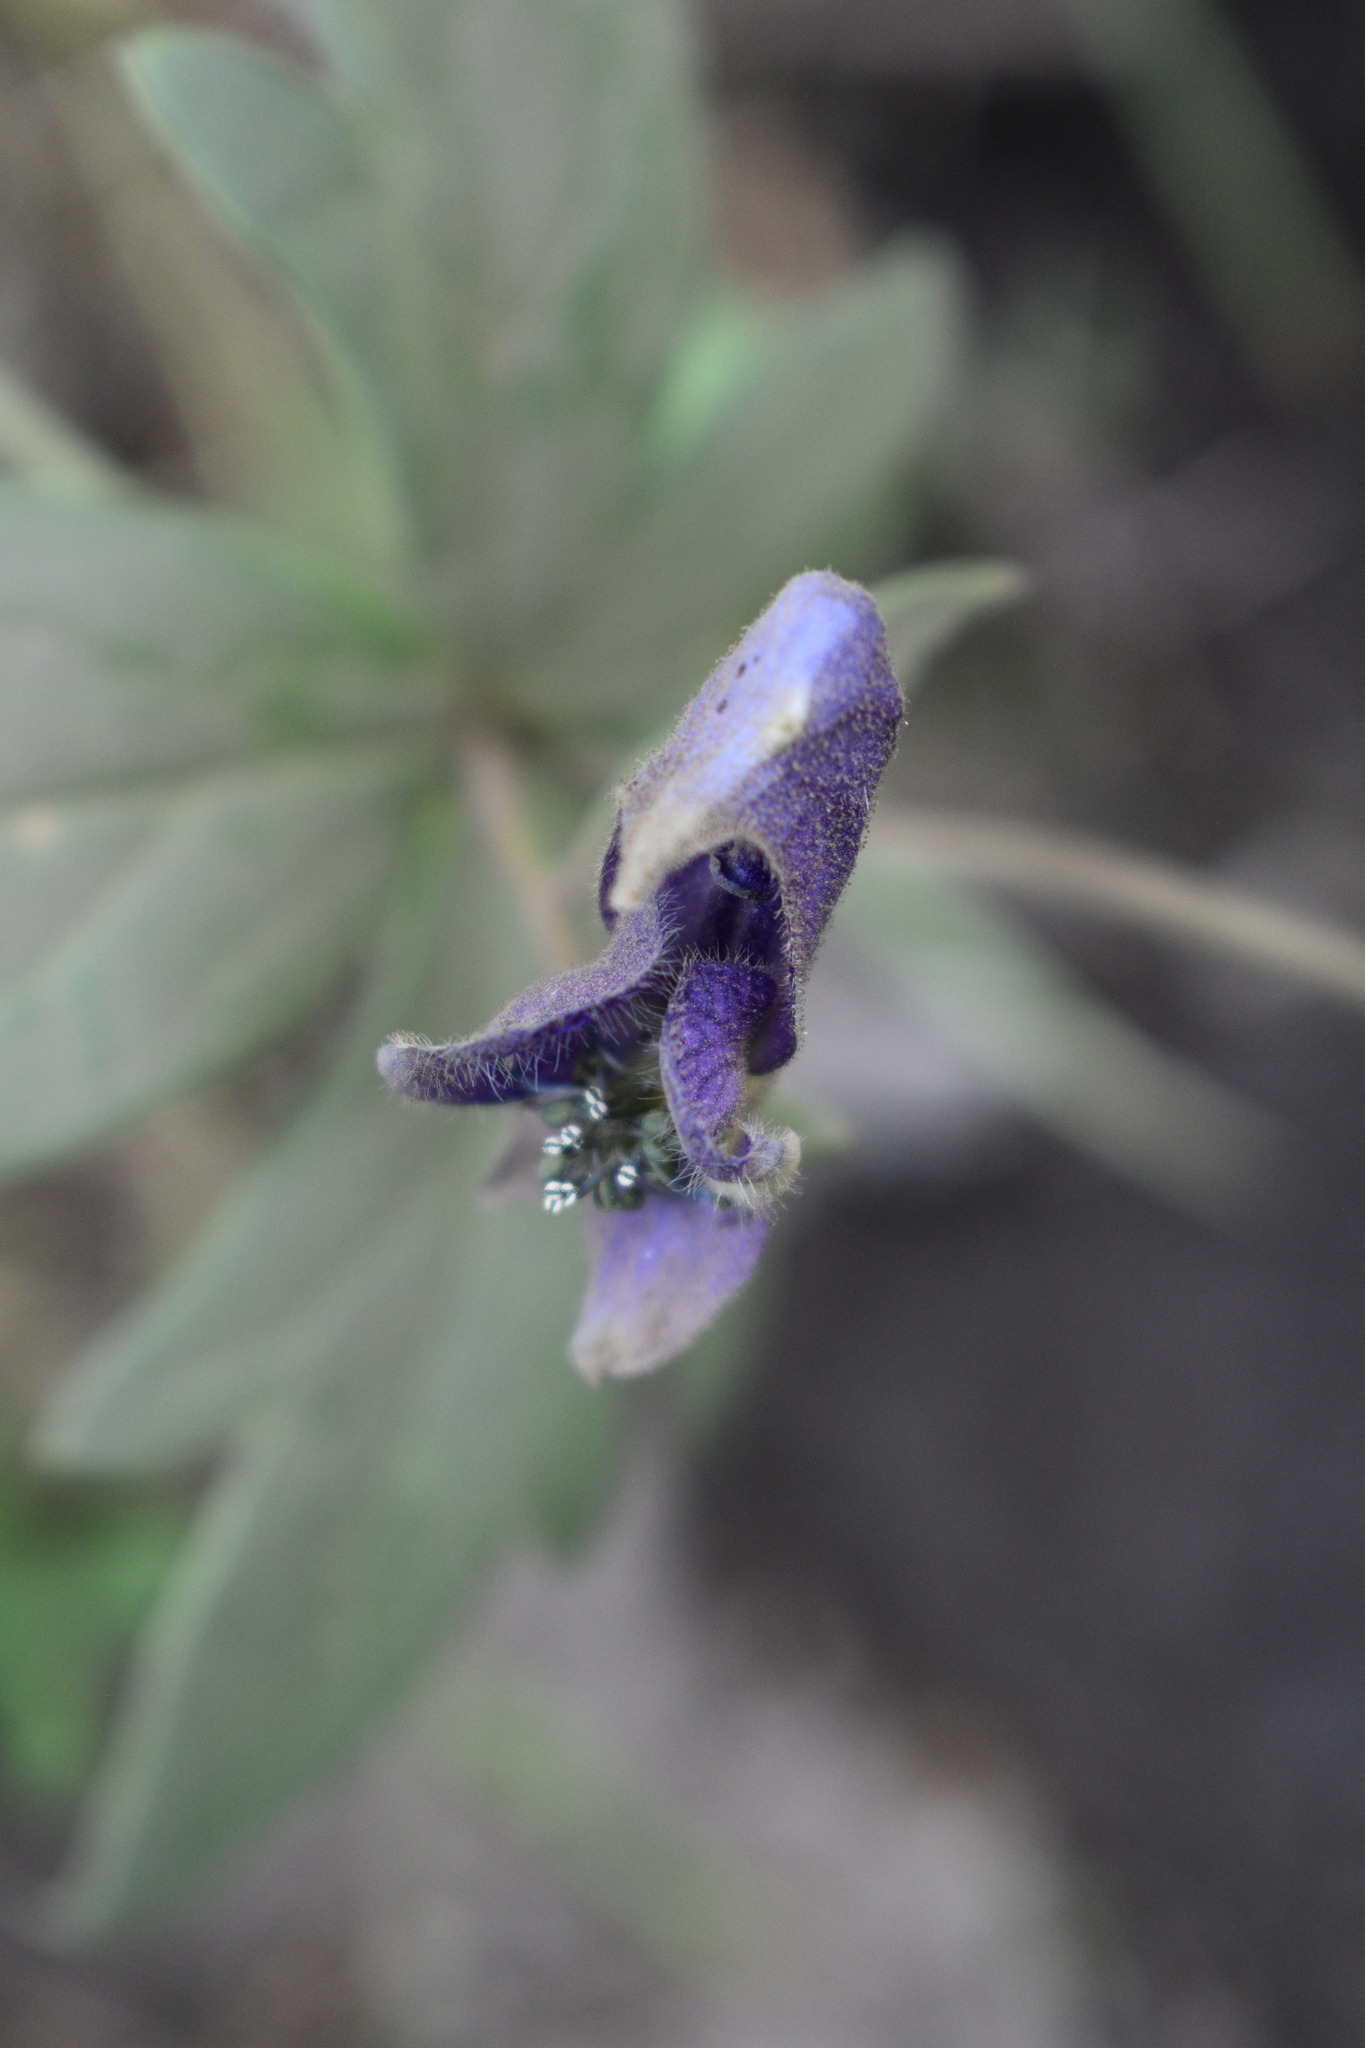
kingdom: Plantae
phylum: Tracheophyta
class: Magnoliopsida
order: Ranunculales
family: Ranunculaceae
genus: Aconitum
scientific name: Aconitum columbianum
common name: Columbia aconite
